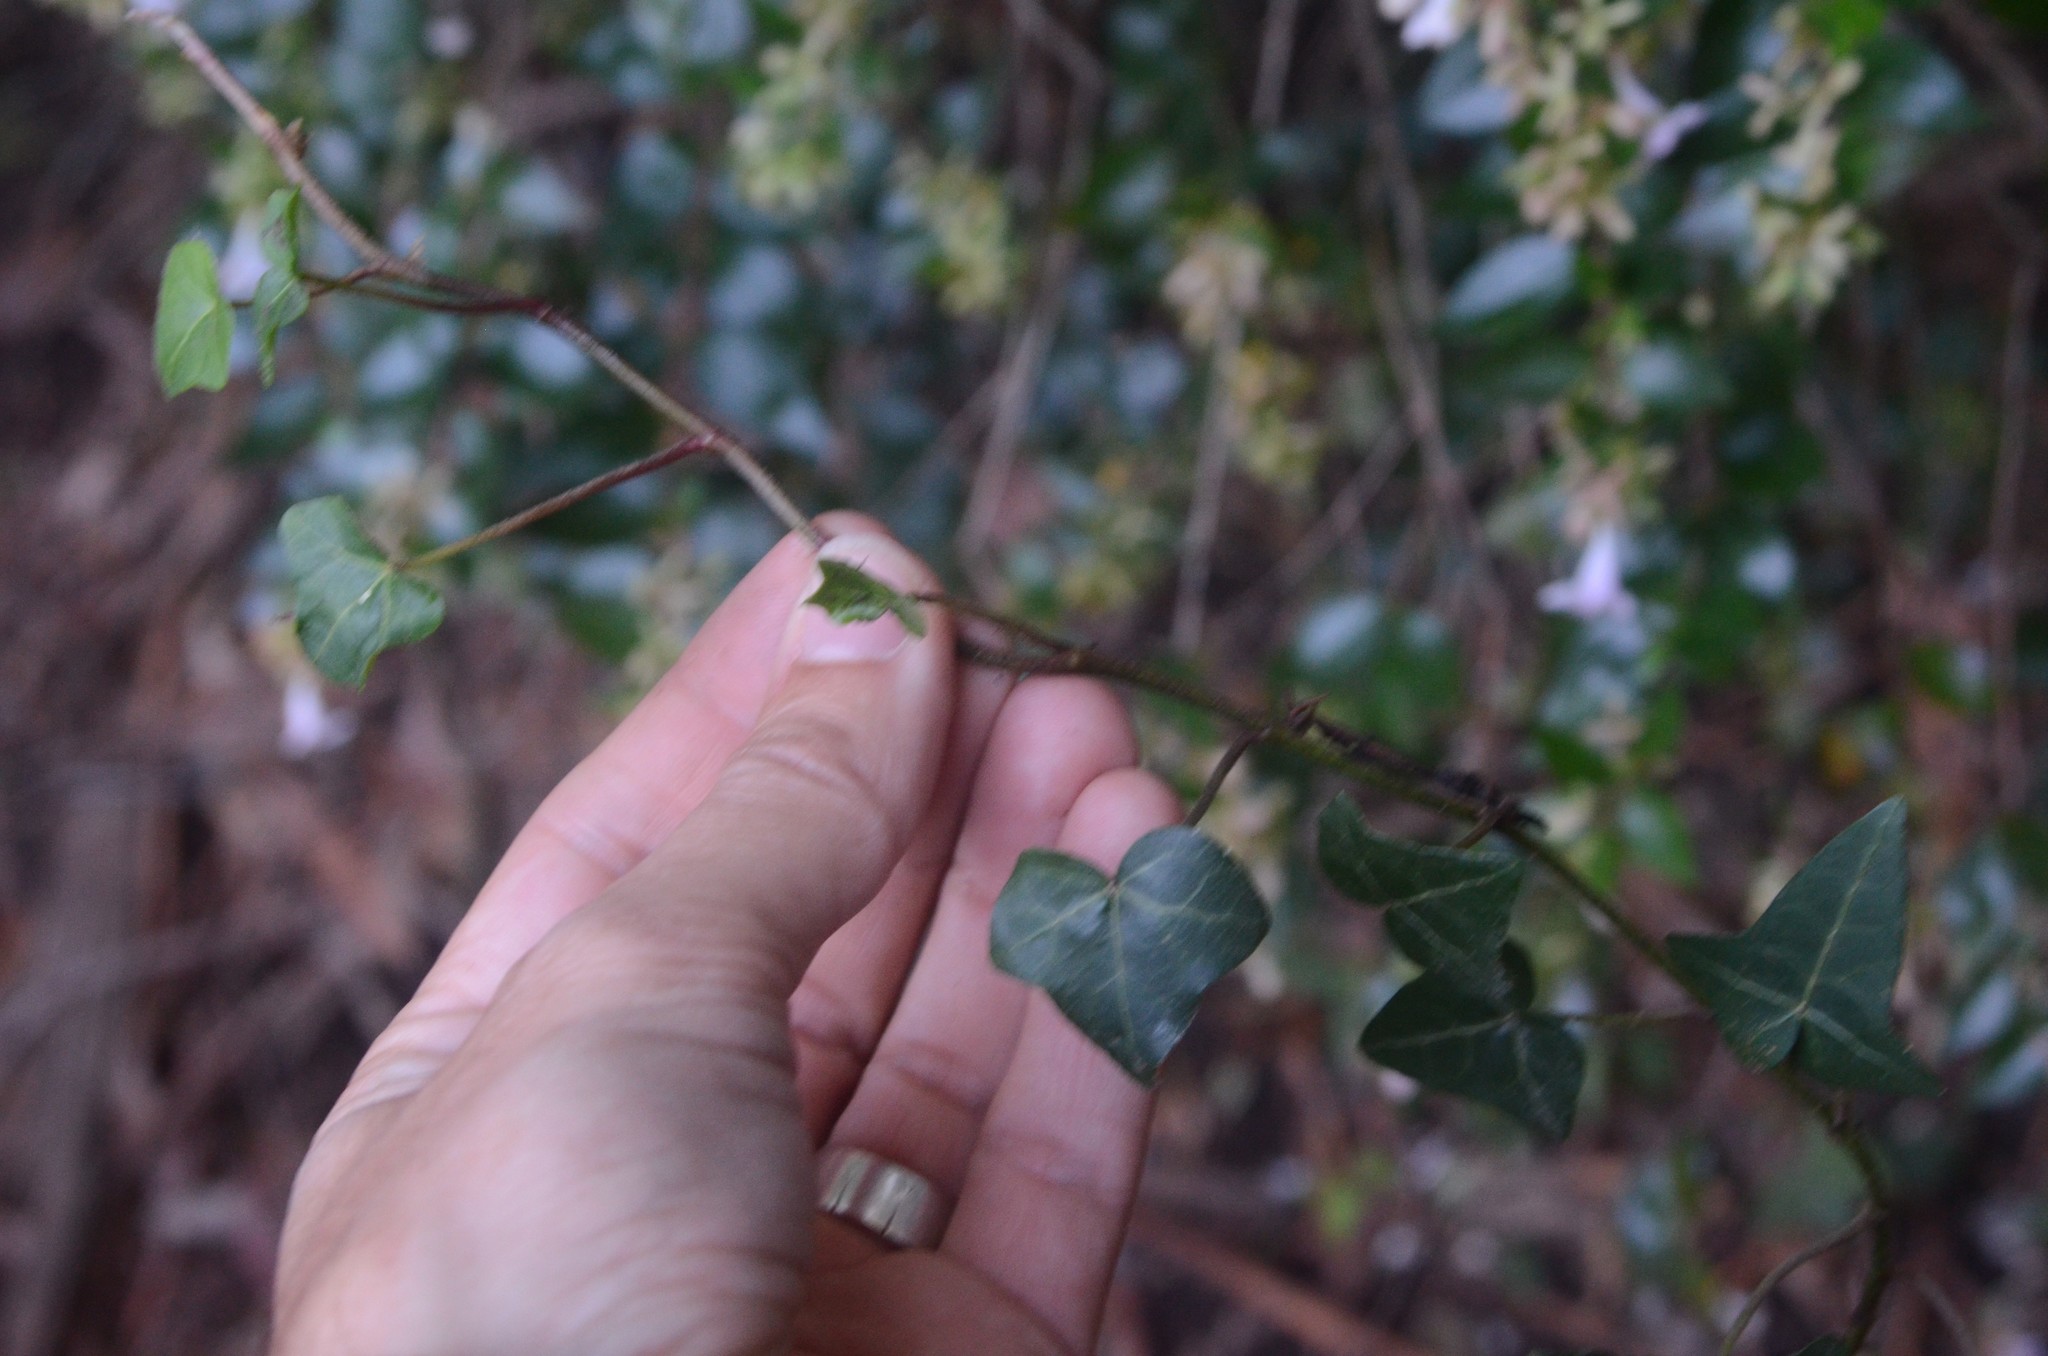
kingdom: Plantae
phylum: Tracheophyta
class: Magnoliopsida
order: Apiales
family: Araliaceae
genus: Hedera
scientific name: Hedera helix
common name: Ivy
